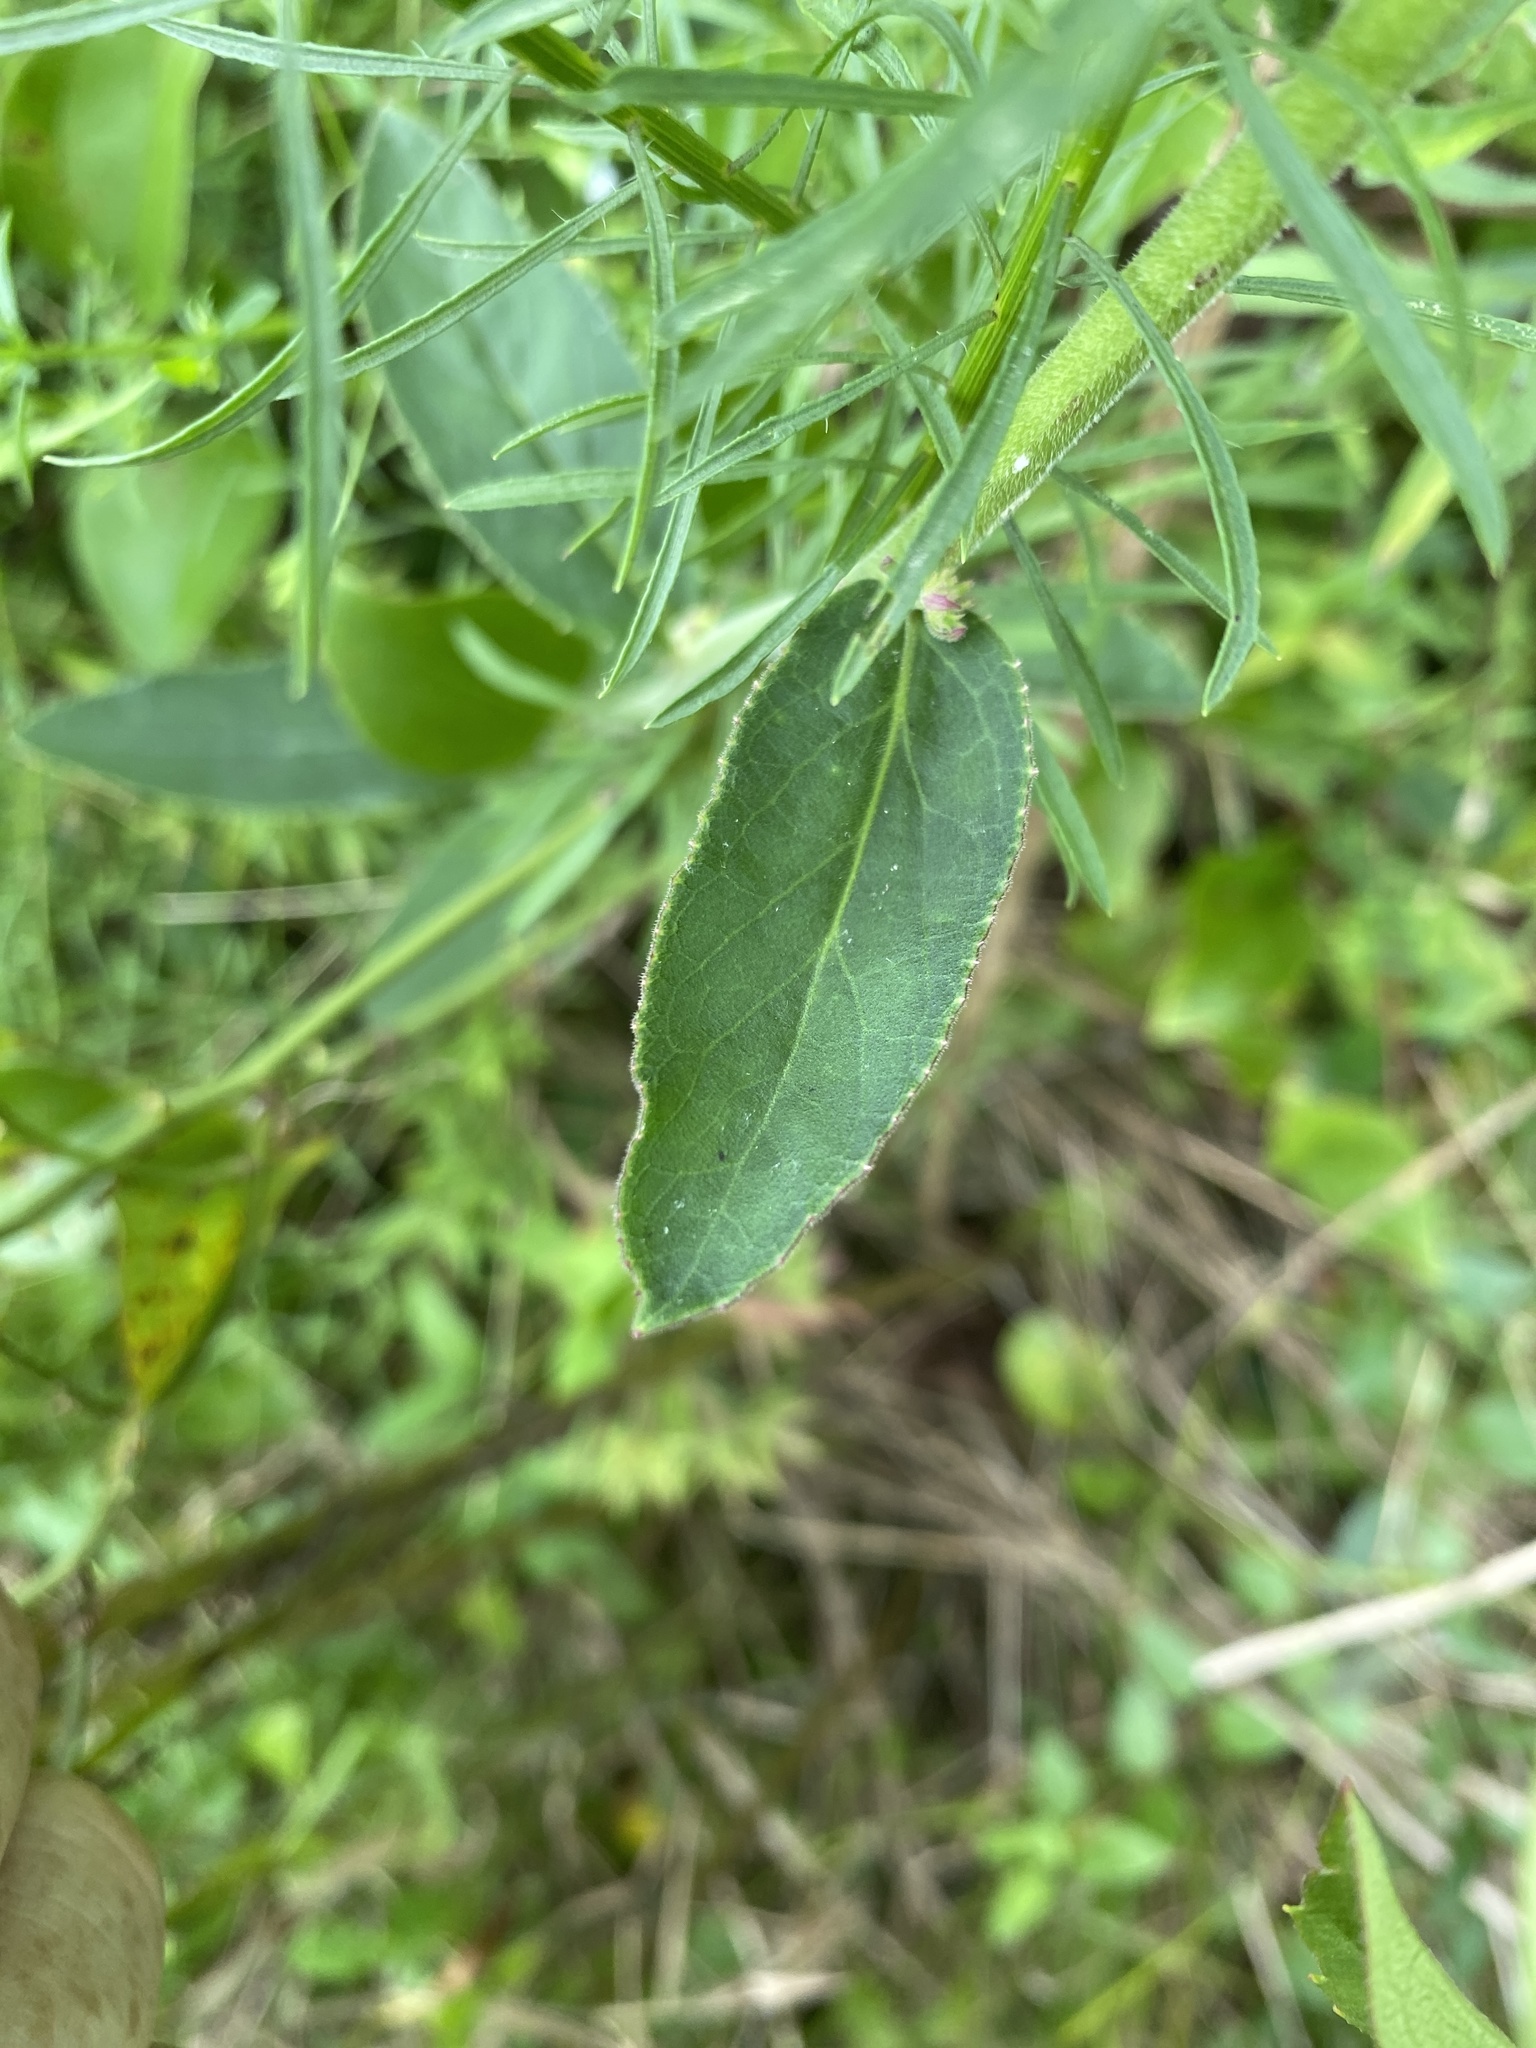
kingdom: Plantae
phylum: Tracheophyta
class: Magnoliopsida
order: Asterales
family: Campanulaceae
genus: Lobelia
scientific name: Lobelia puberula
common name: Purple dewdrop
